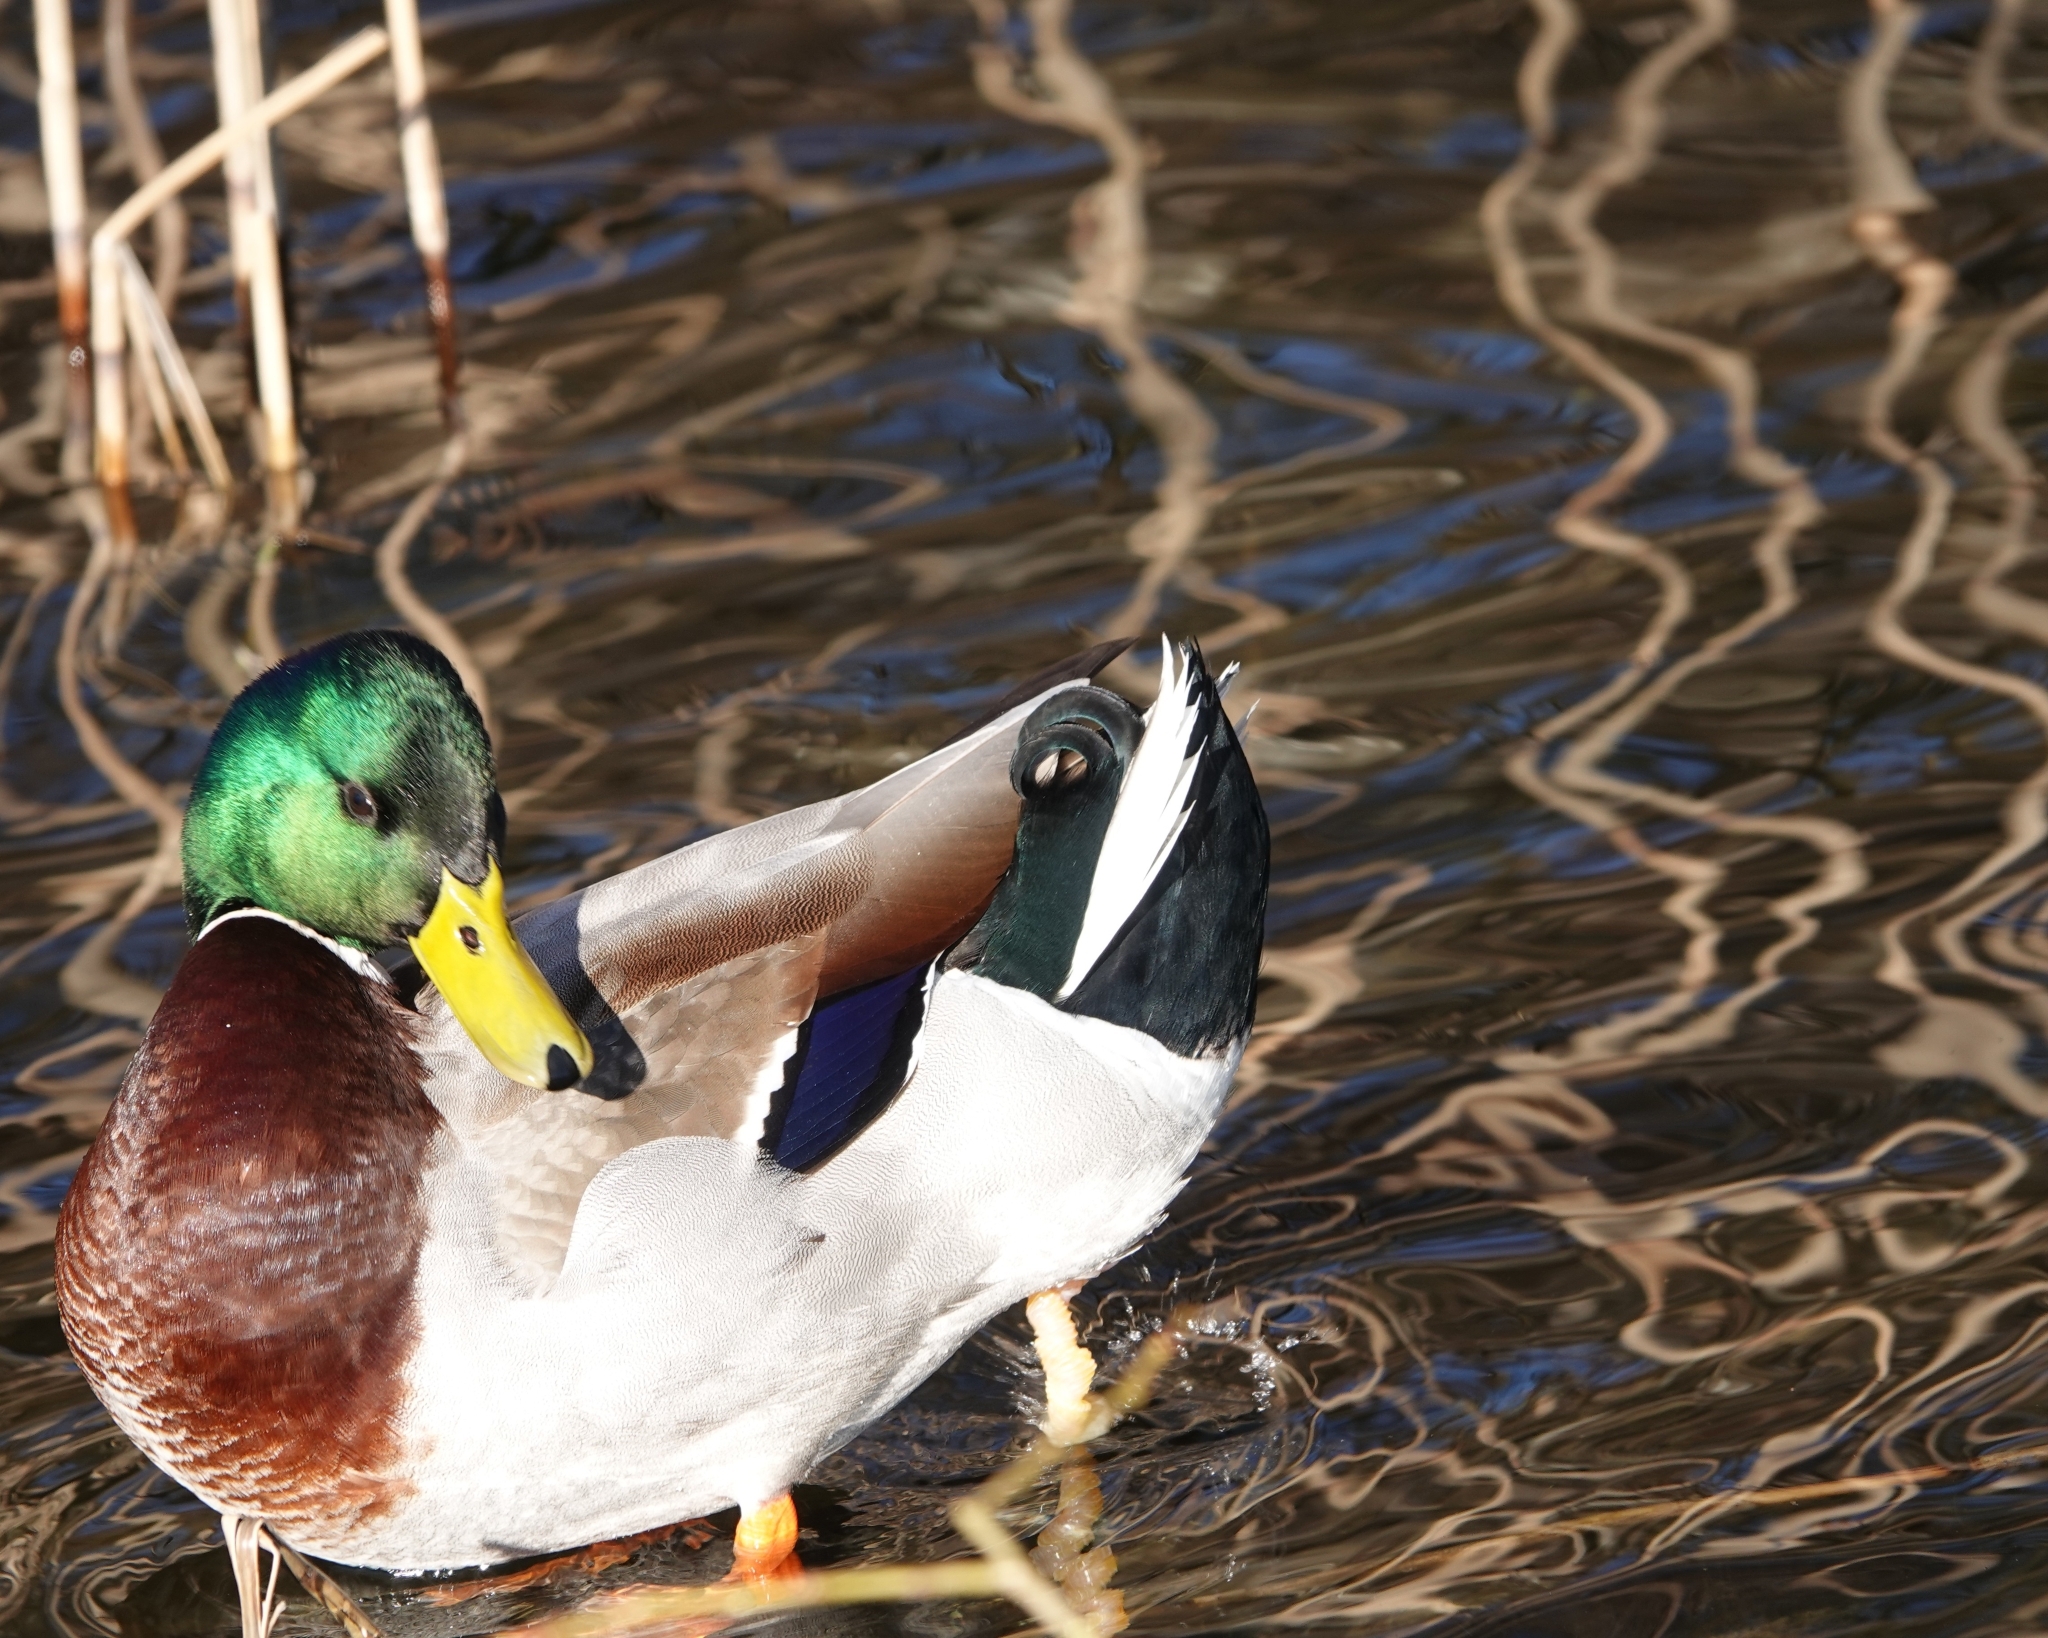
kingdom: Animalia
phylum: Chordata
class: Aves
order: Anseriformes
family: Anatidae
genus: Anas
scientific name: Anas platyrhynchos
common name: Mallard
